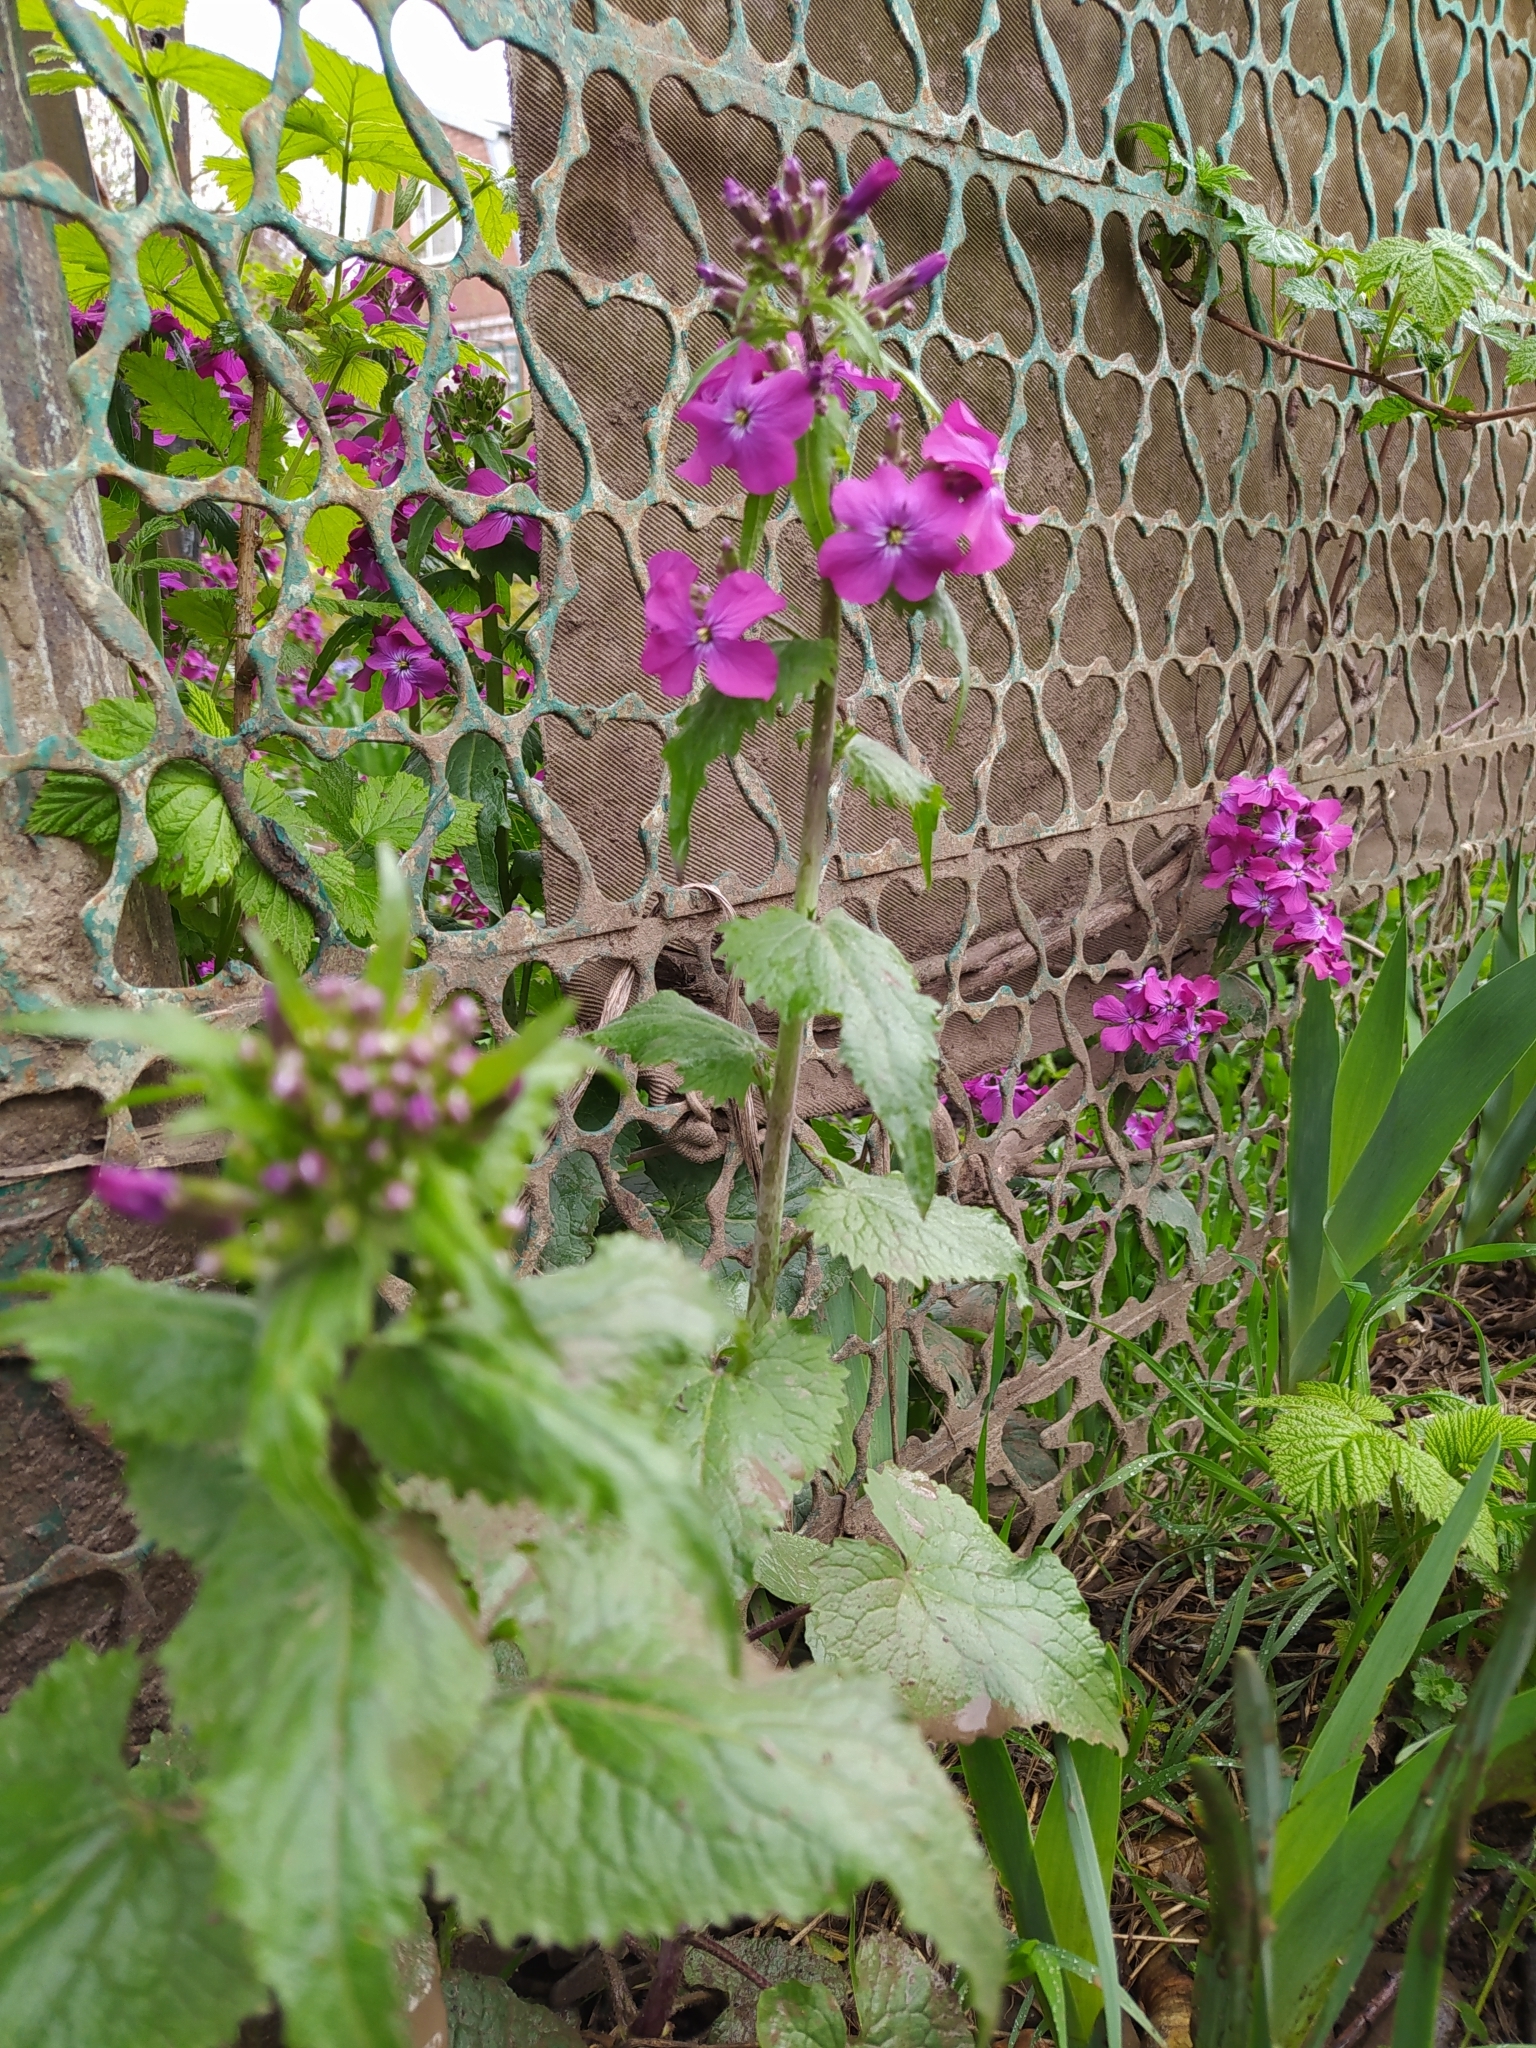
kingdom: Plantae
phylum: Tracheophyta
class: Magnoliopsida
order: Brassicales
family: Brassicaceae
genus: Lunaria
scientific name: Lunaria annua
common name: Honesty
